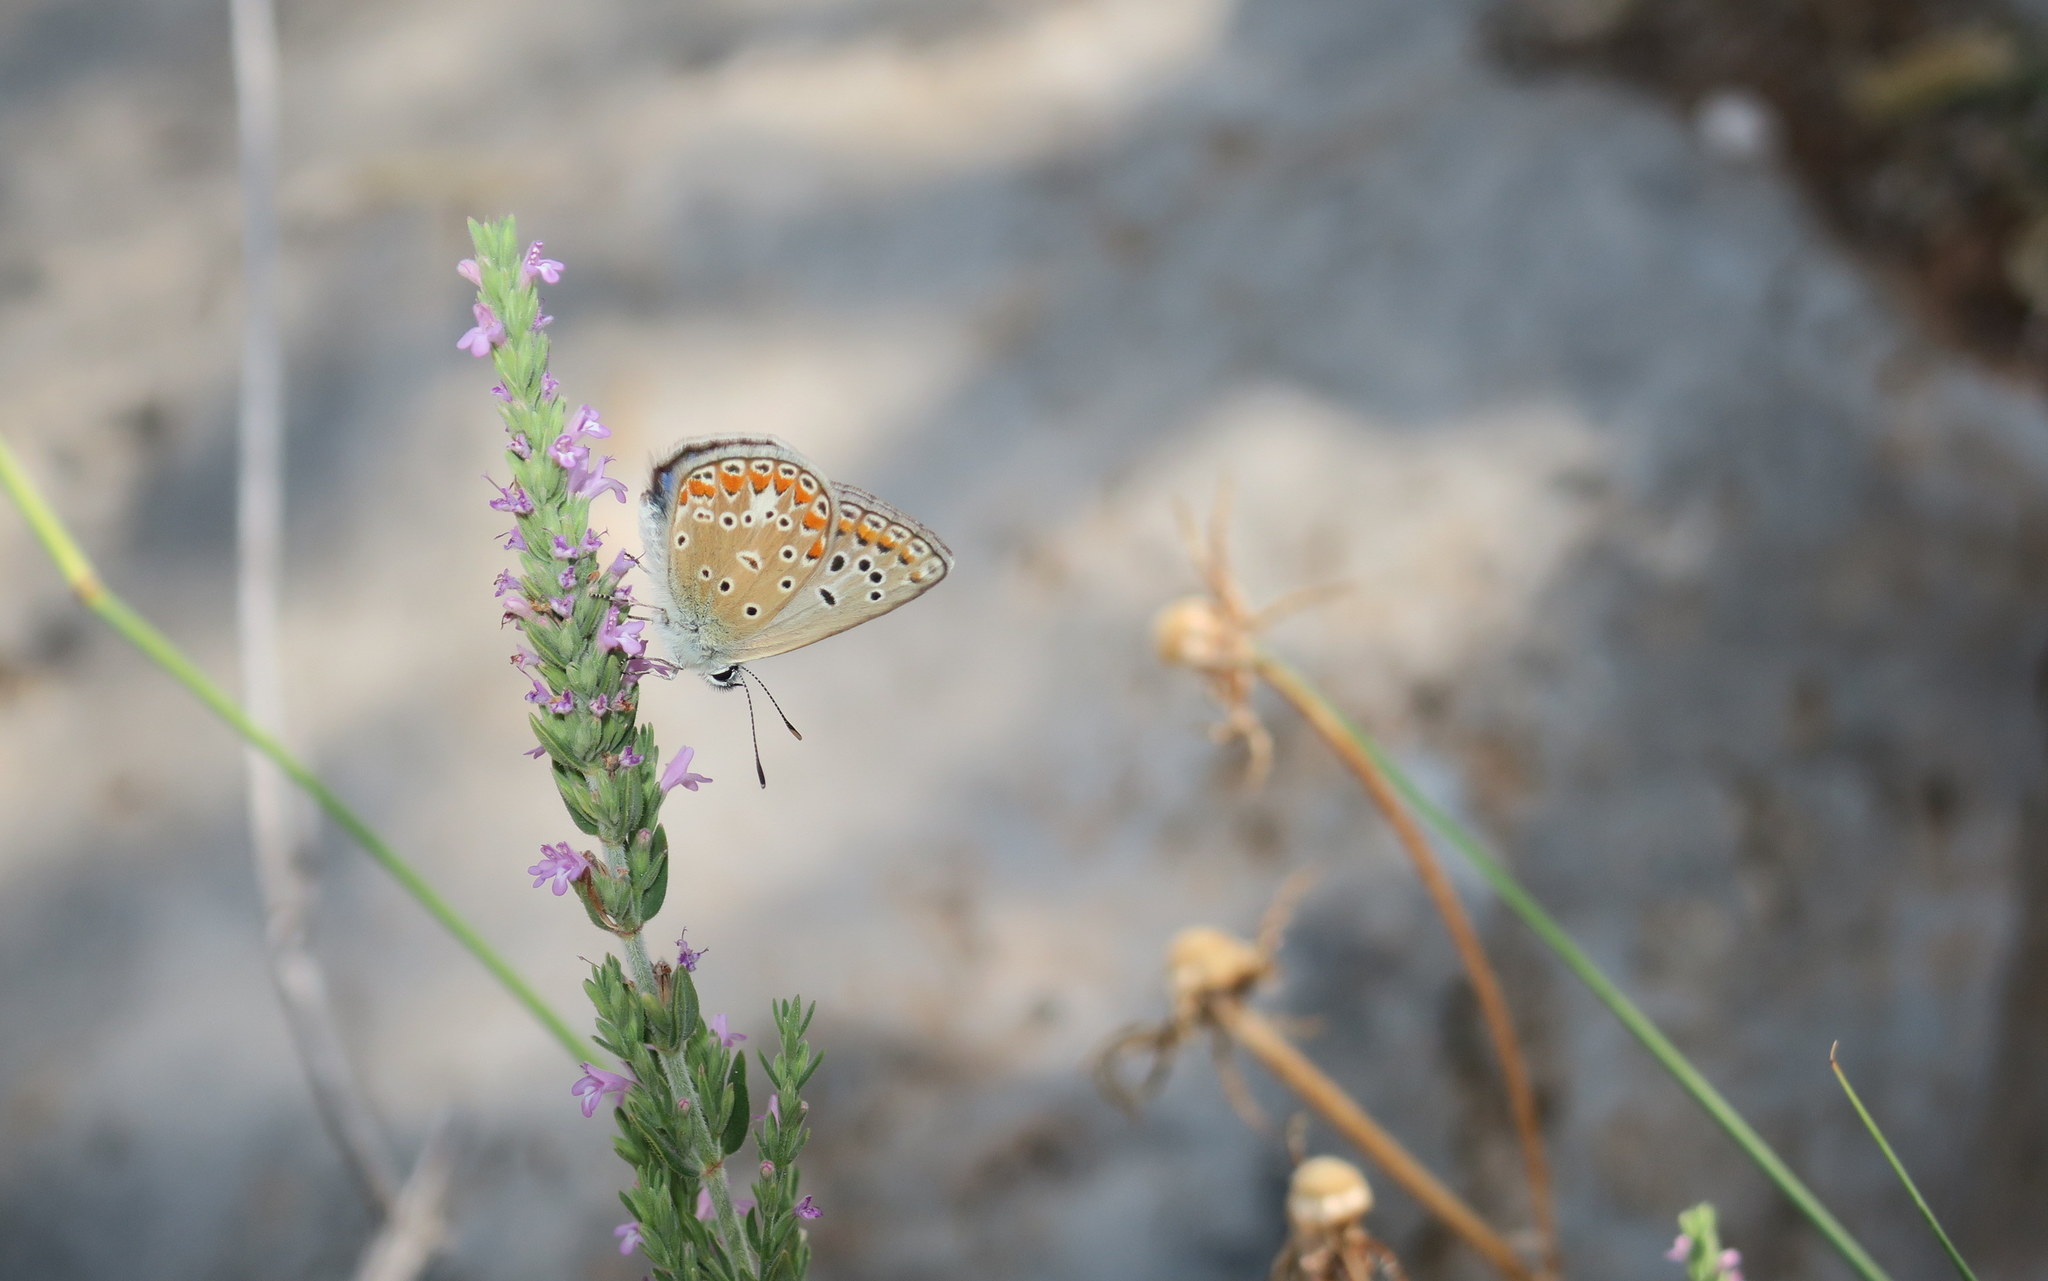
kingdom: Animalia
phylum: Arthropoda
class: Insecta
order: Lepidoptera
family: Lycaenidae
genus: Polyommatus
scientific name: Polyommatus thersites
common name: Chapman's blue
